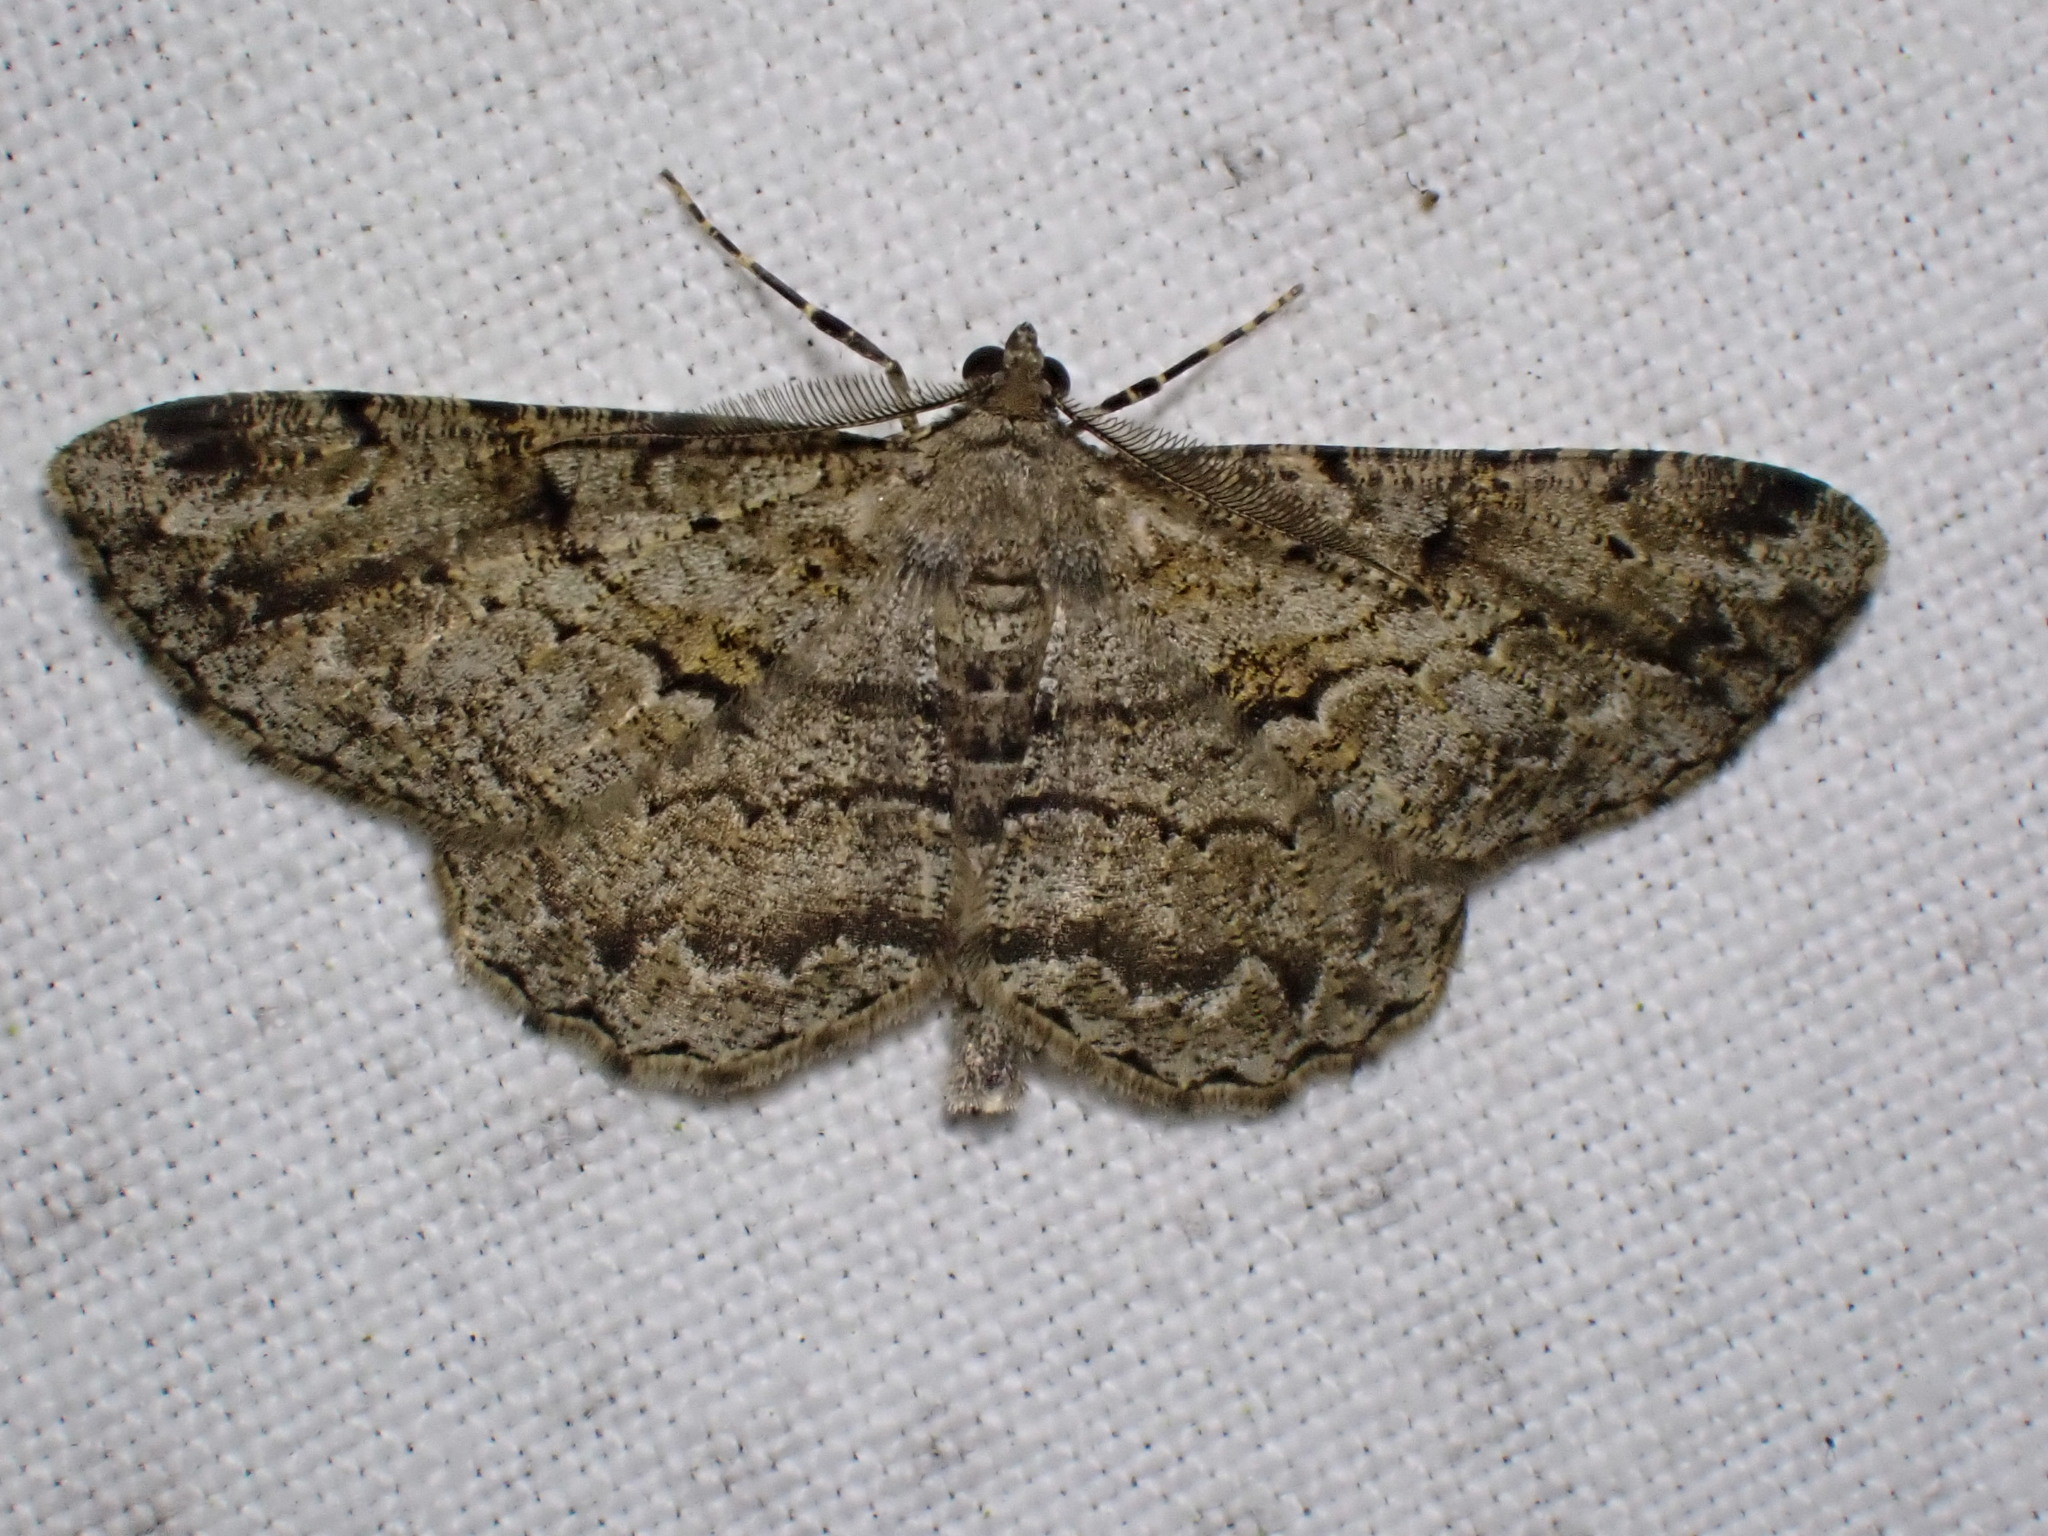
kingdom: Animalia
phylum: Arthropoda
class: Insecta
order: Lepidoptera
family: Geometridae
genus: Peribatodes
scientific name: Peribatodes rhomboidaria
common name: Willow beauty
